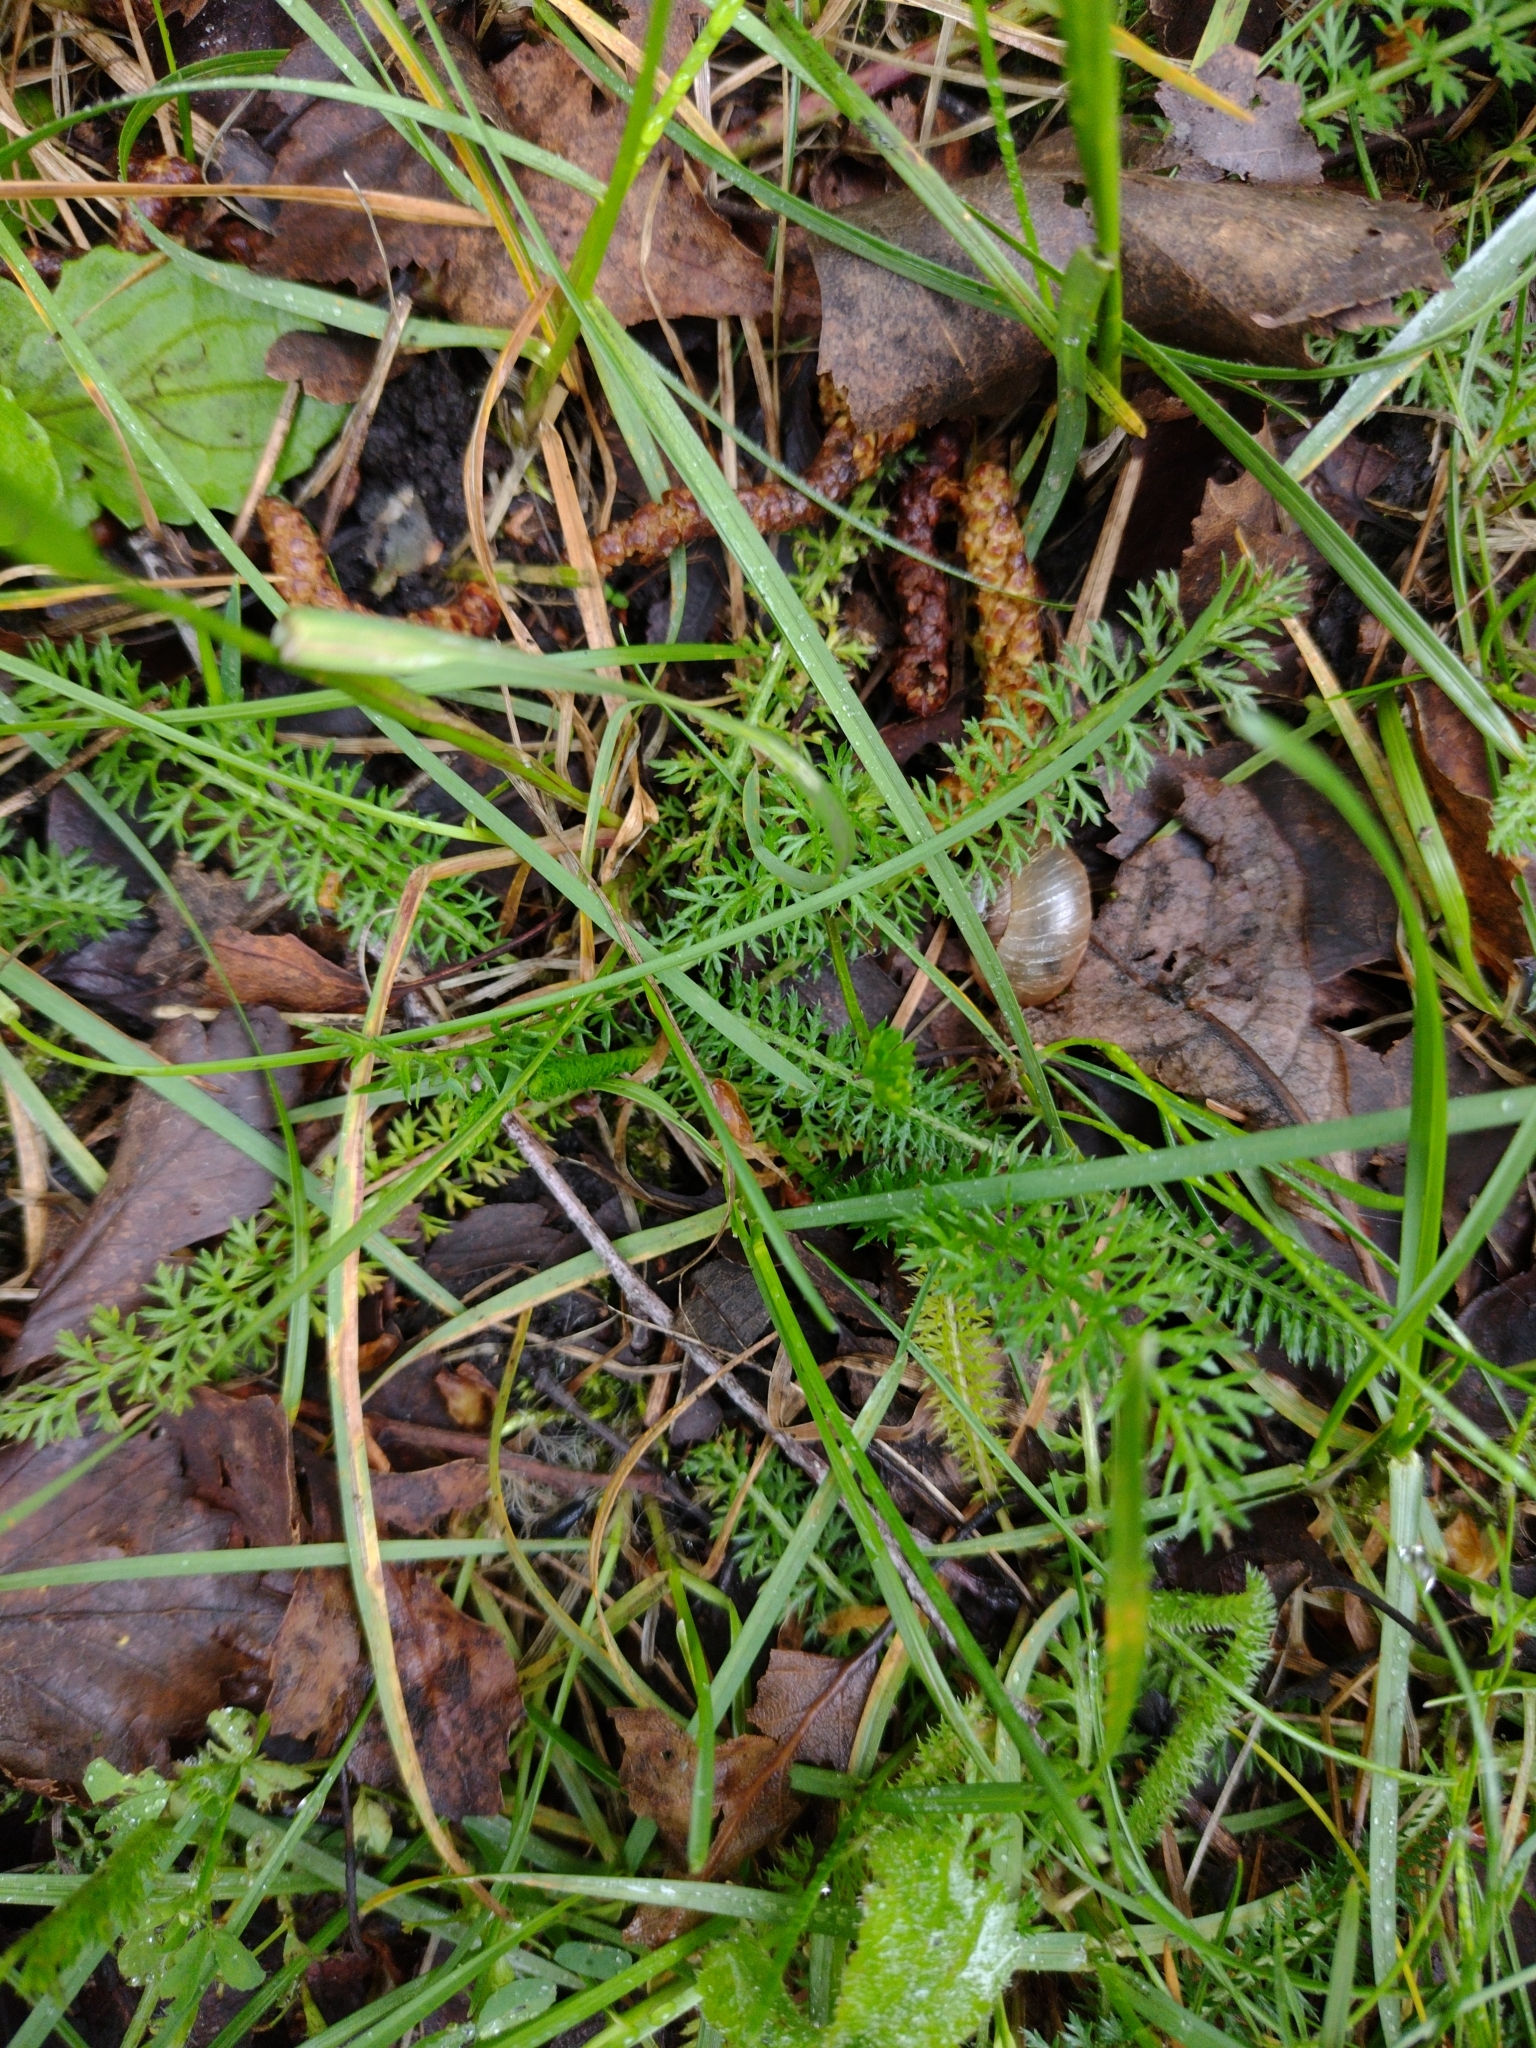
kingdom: Plantae
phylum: Tracheophyta
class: Magnoliopsida
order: Asterales
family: Asteraceae
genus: Achillea
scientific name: Achillea millefolium
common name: Yarrow
